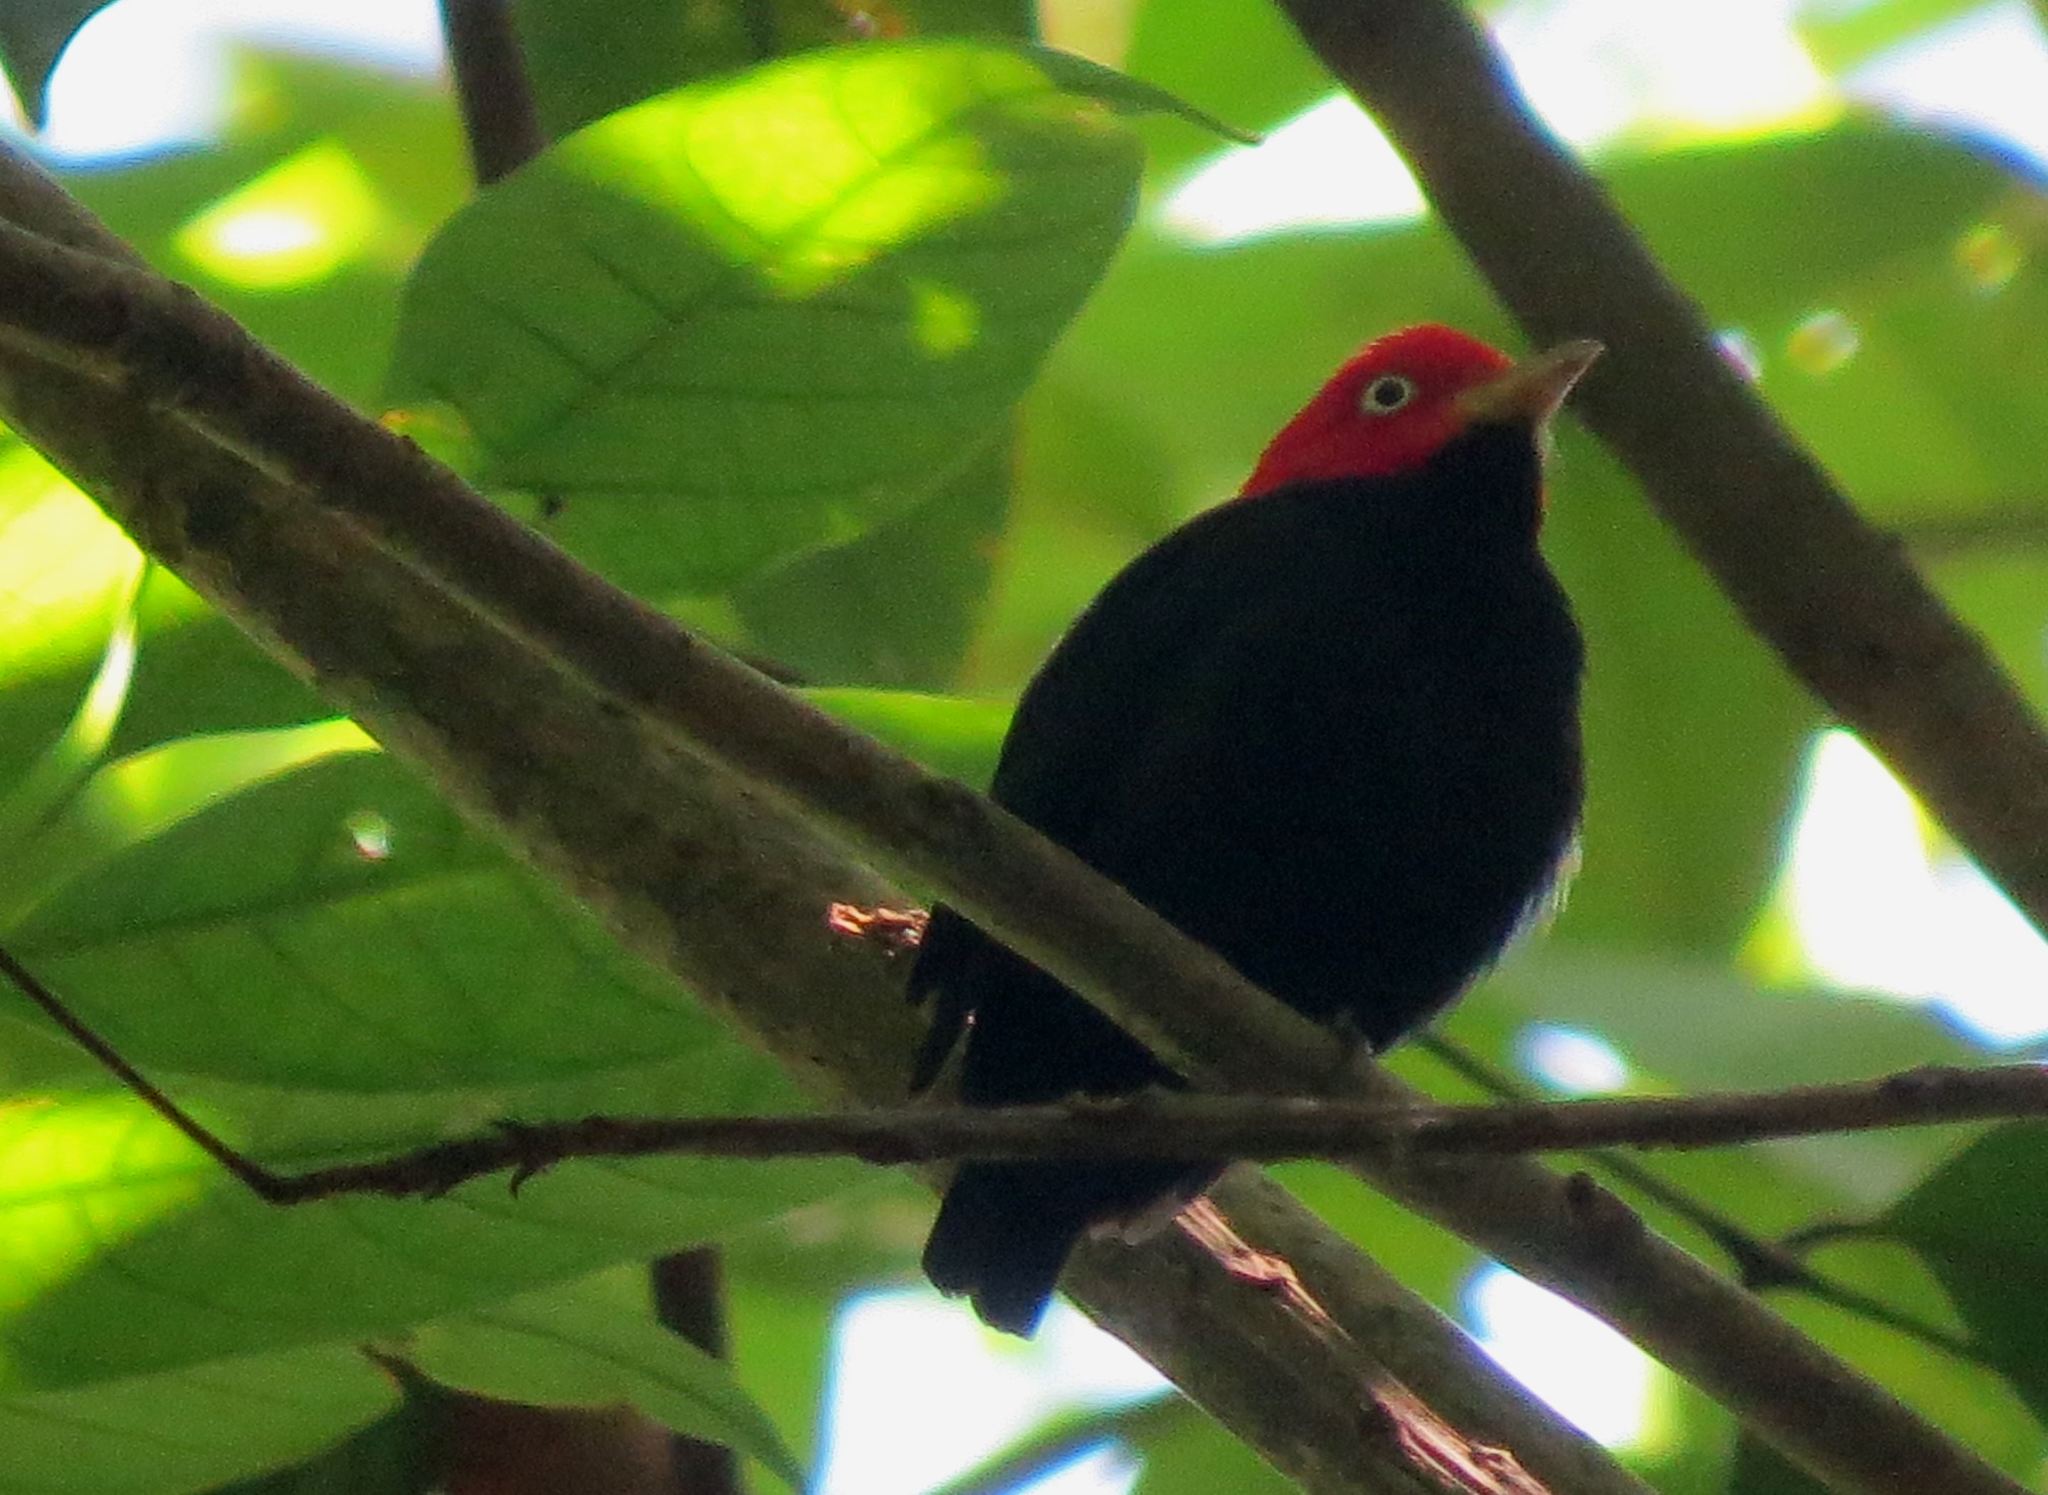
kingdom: Animalia
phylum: Chordata
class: Aves
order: Passeriformes
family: Pipridae
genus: Pipra
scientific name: Pipra mentalis
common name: Red-capped manakin
